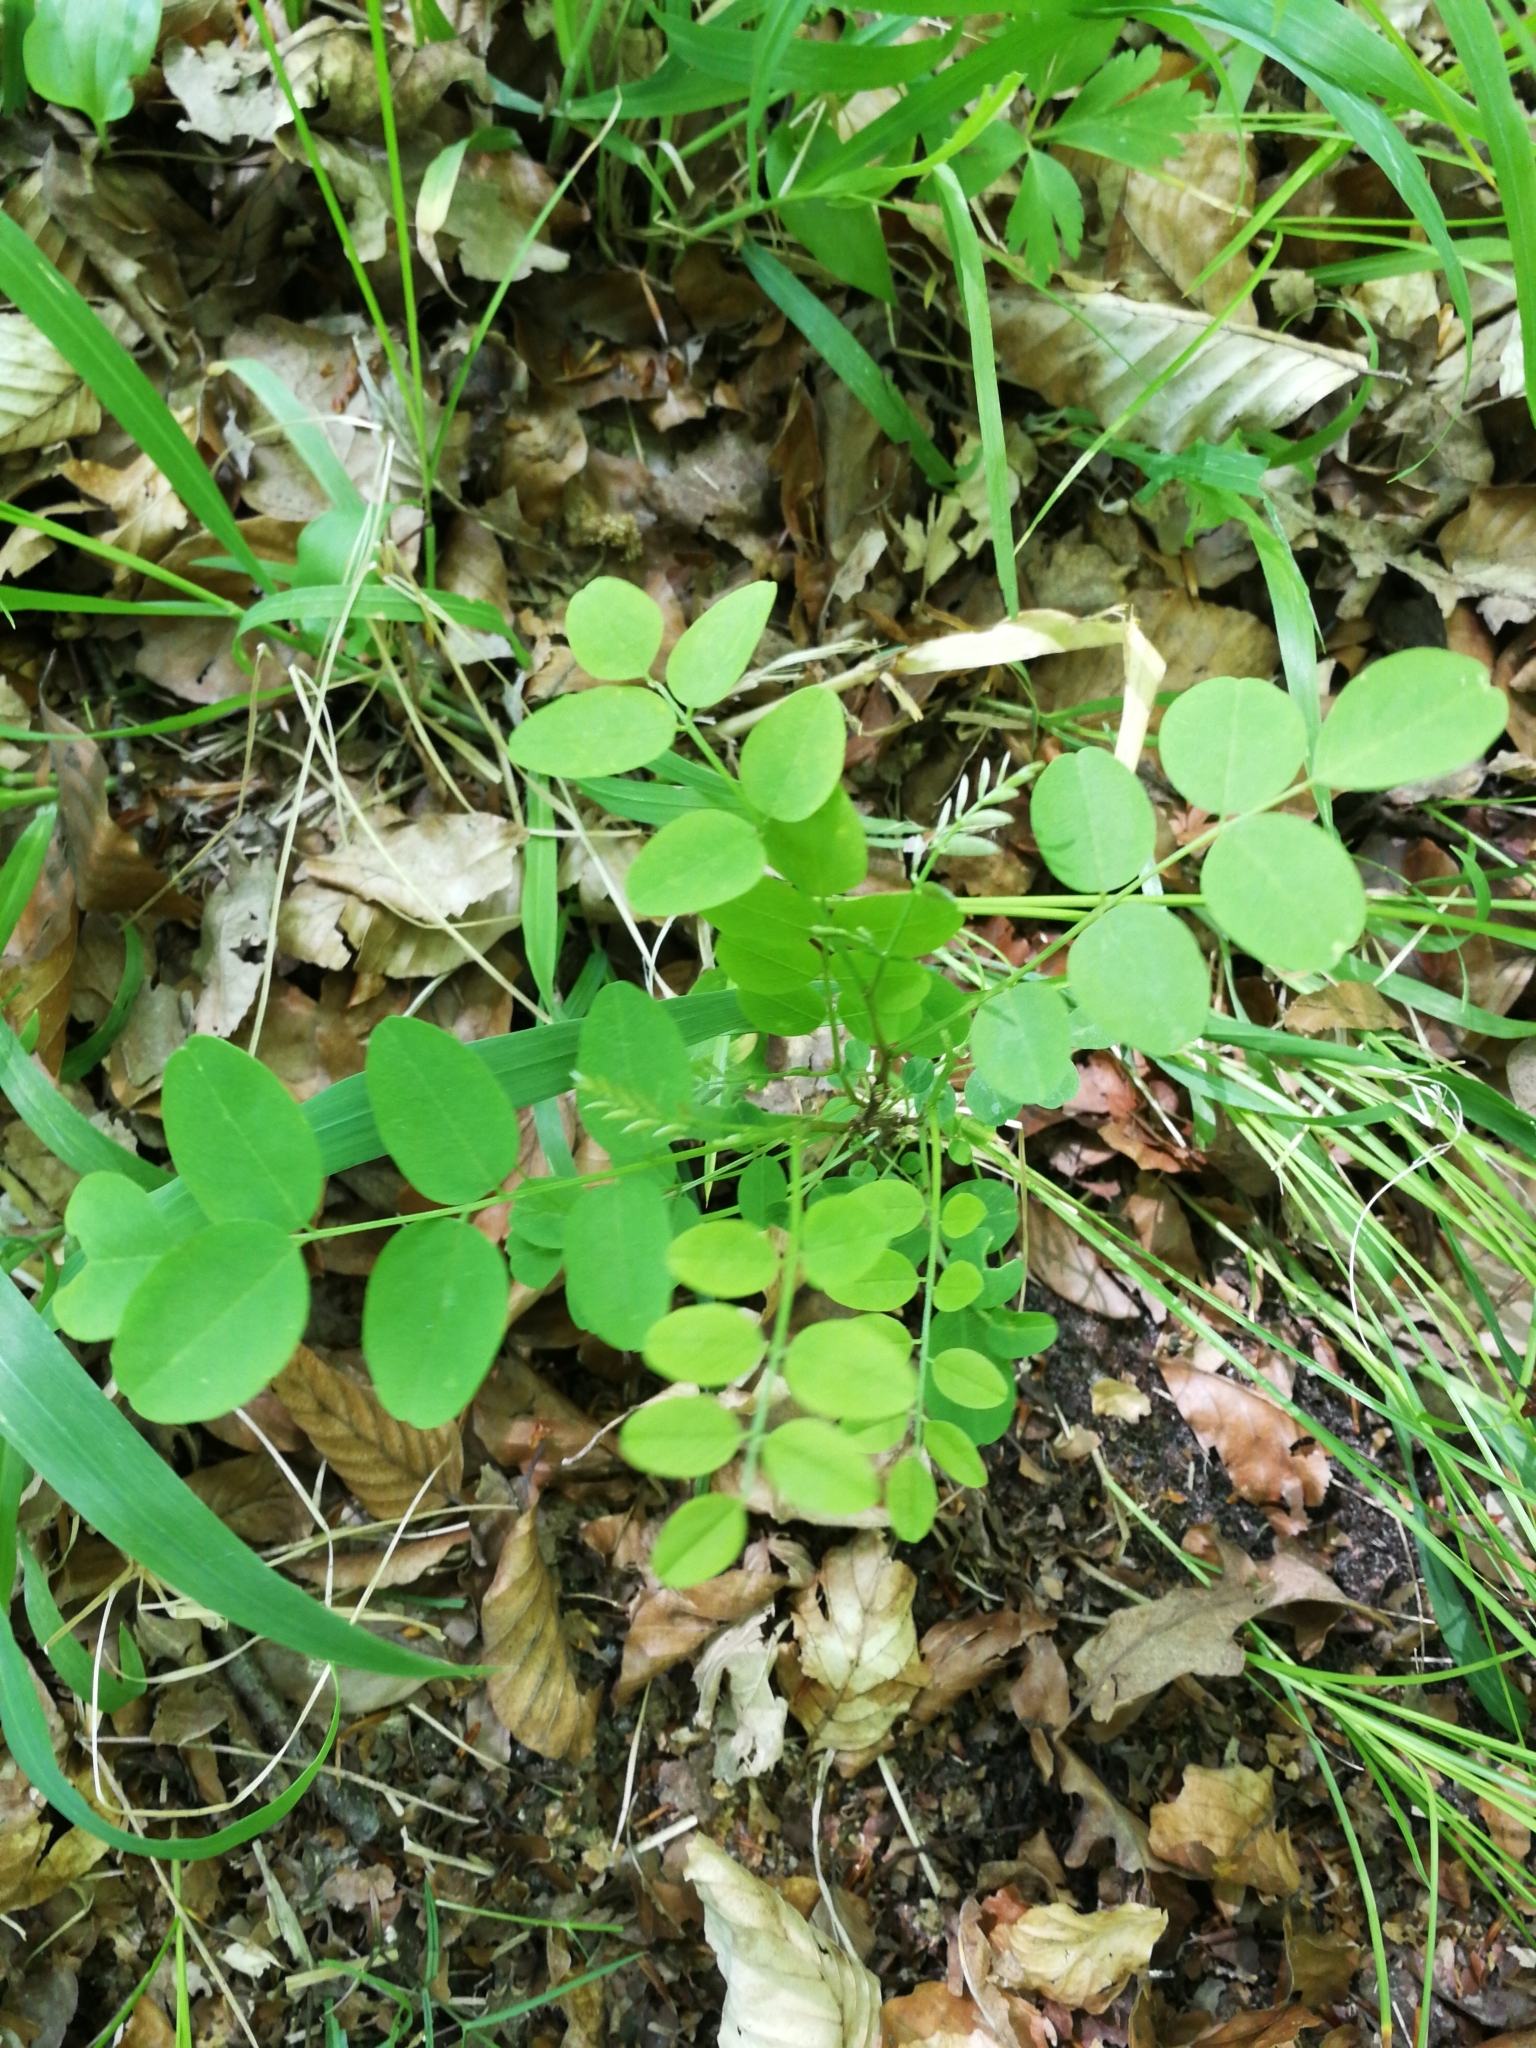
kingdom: Plantae
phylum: Tracheophyta
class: Magnoliopsida
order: Fabales
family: Fabaceae
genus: Robinia
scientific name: Robinia pseudoacacia
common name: Black locust
